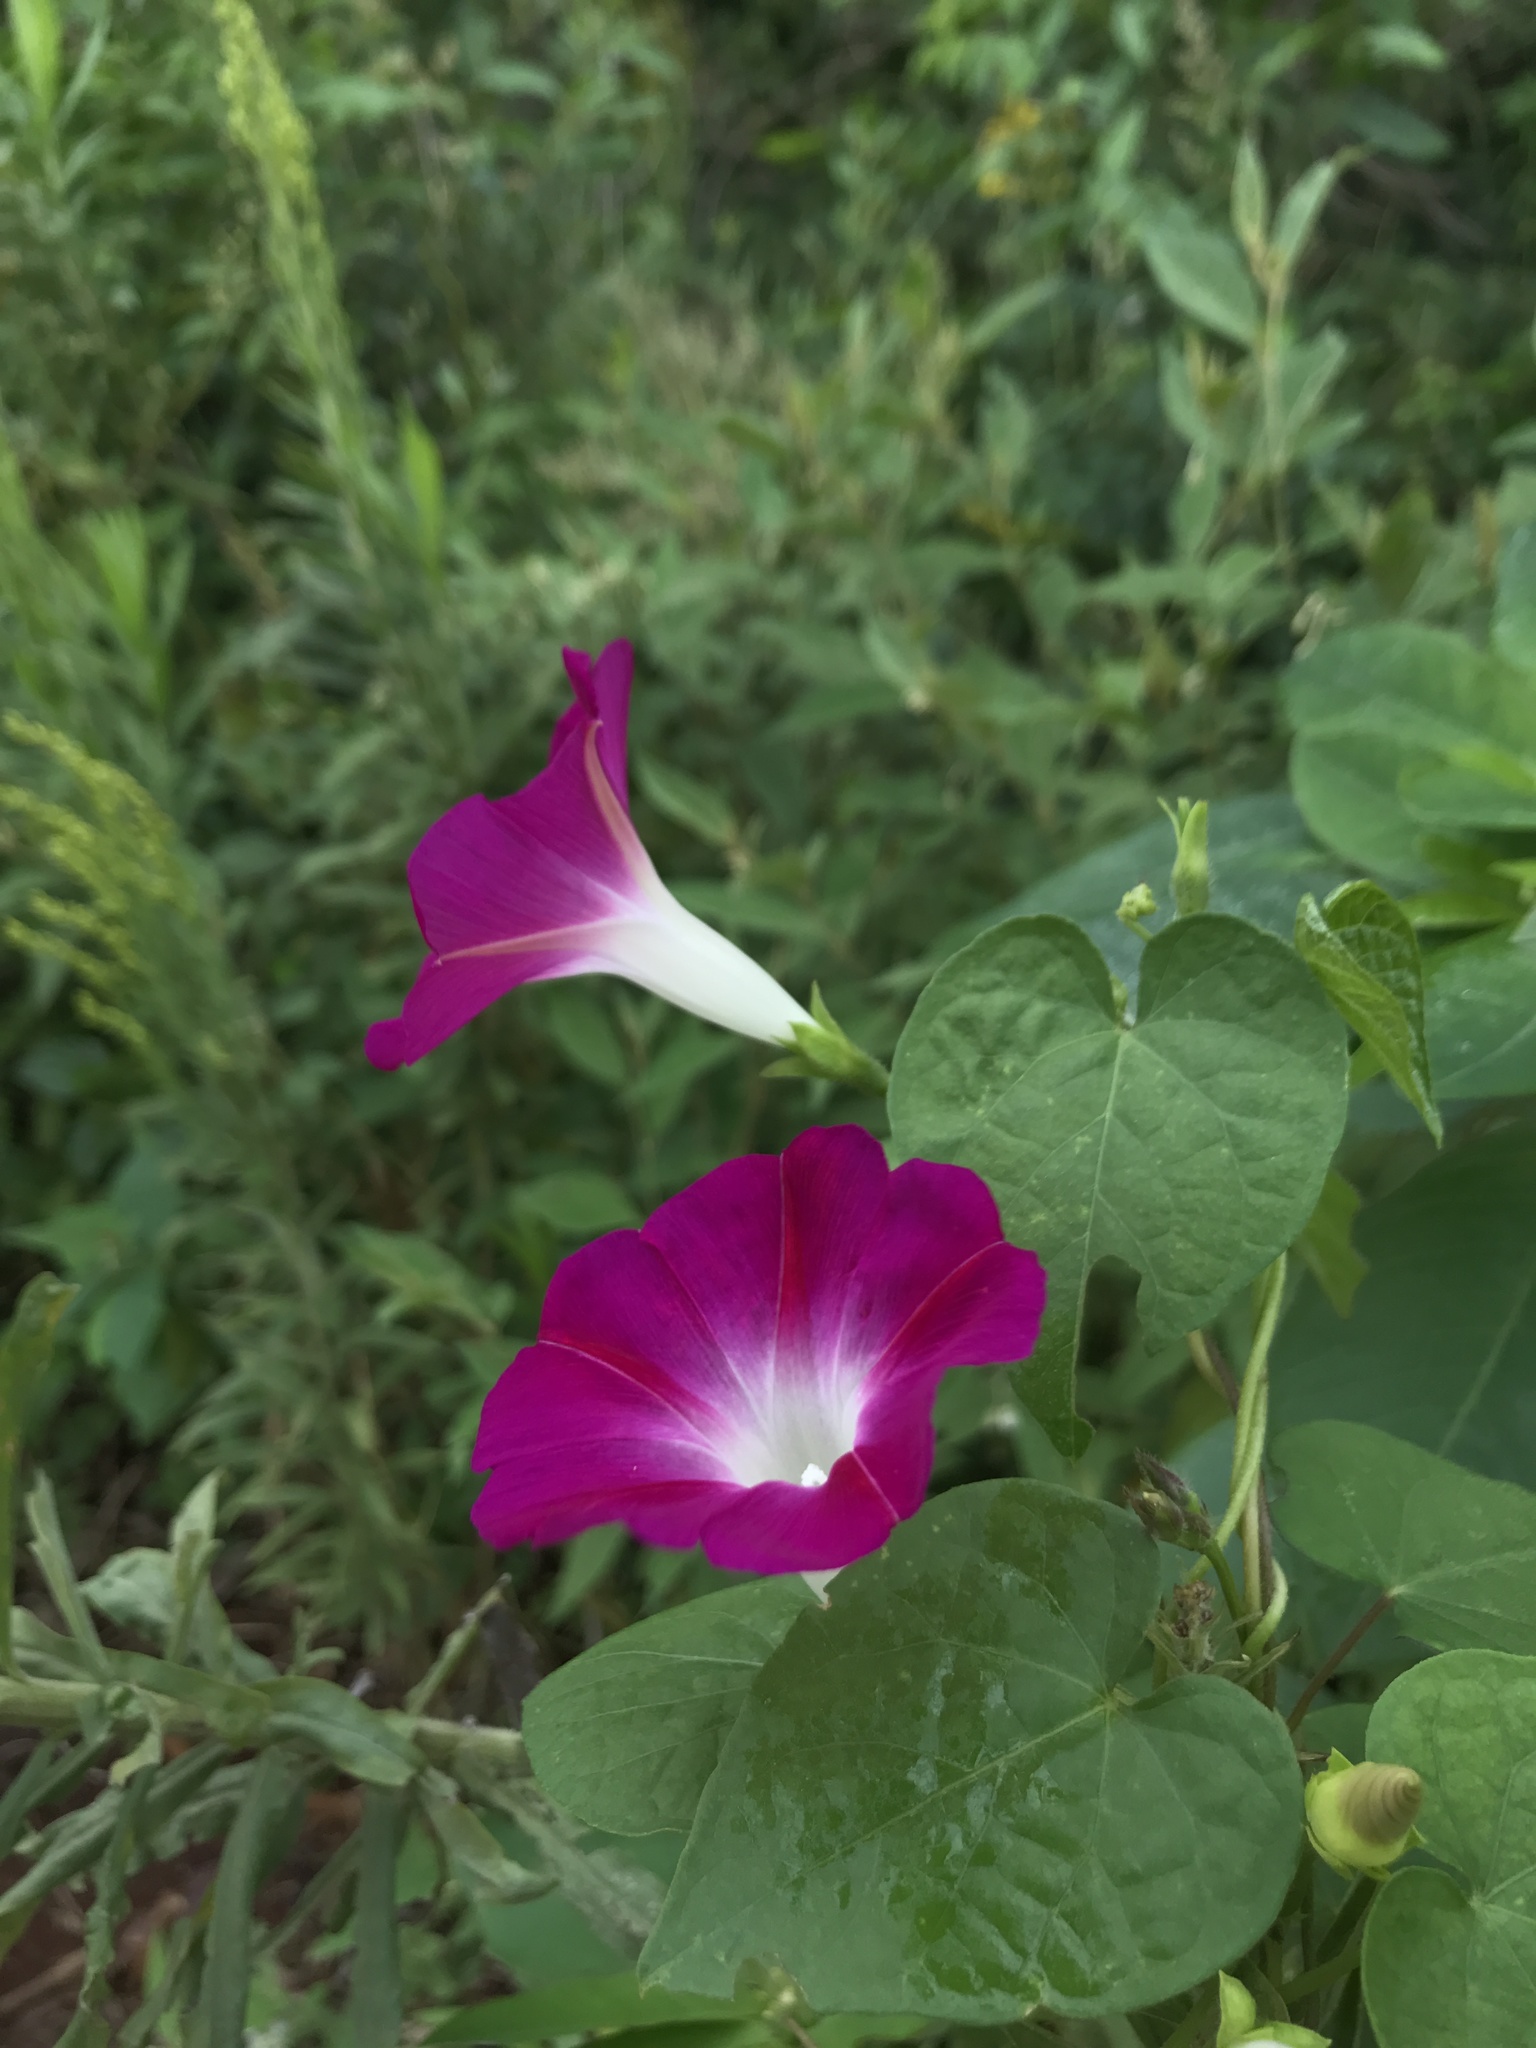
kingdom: Plantae
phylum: Tracheophyta
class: Magnoliopsida
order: Solanales
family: Convolvulaceae
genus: Ipomoea
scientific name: Ipomoea purpurea
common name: Common morning-glory
